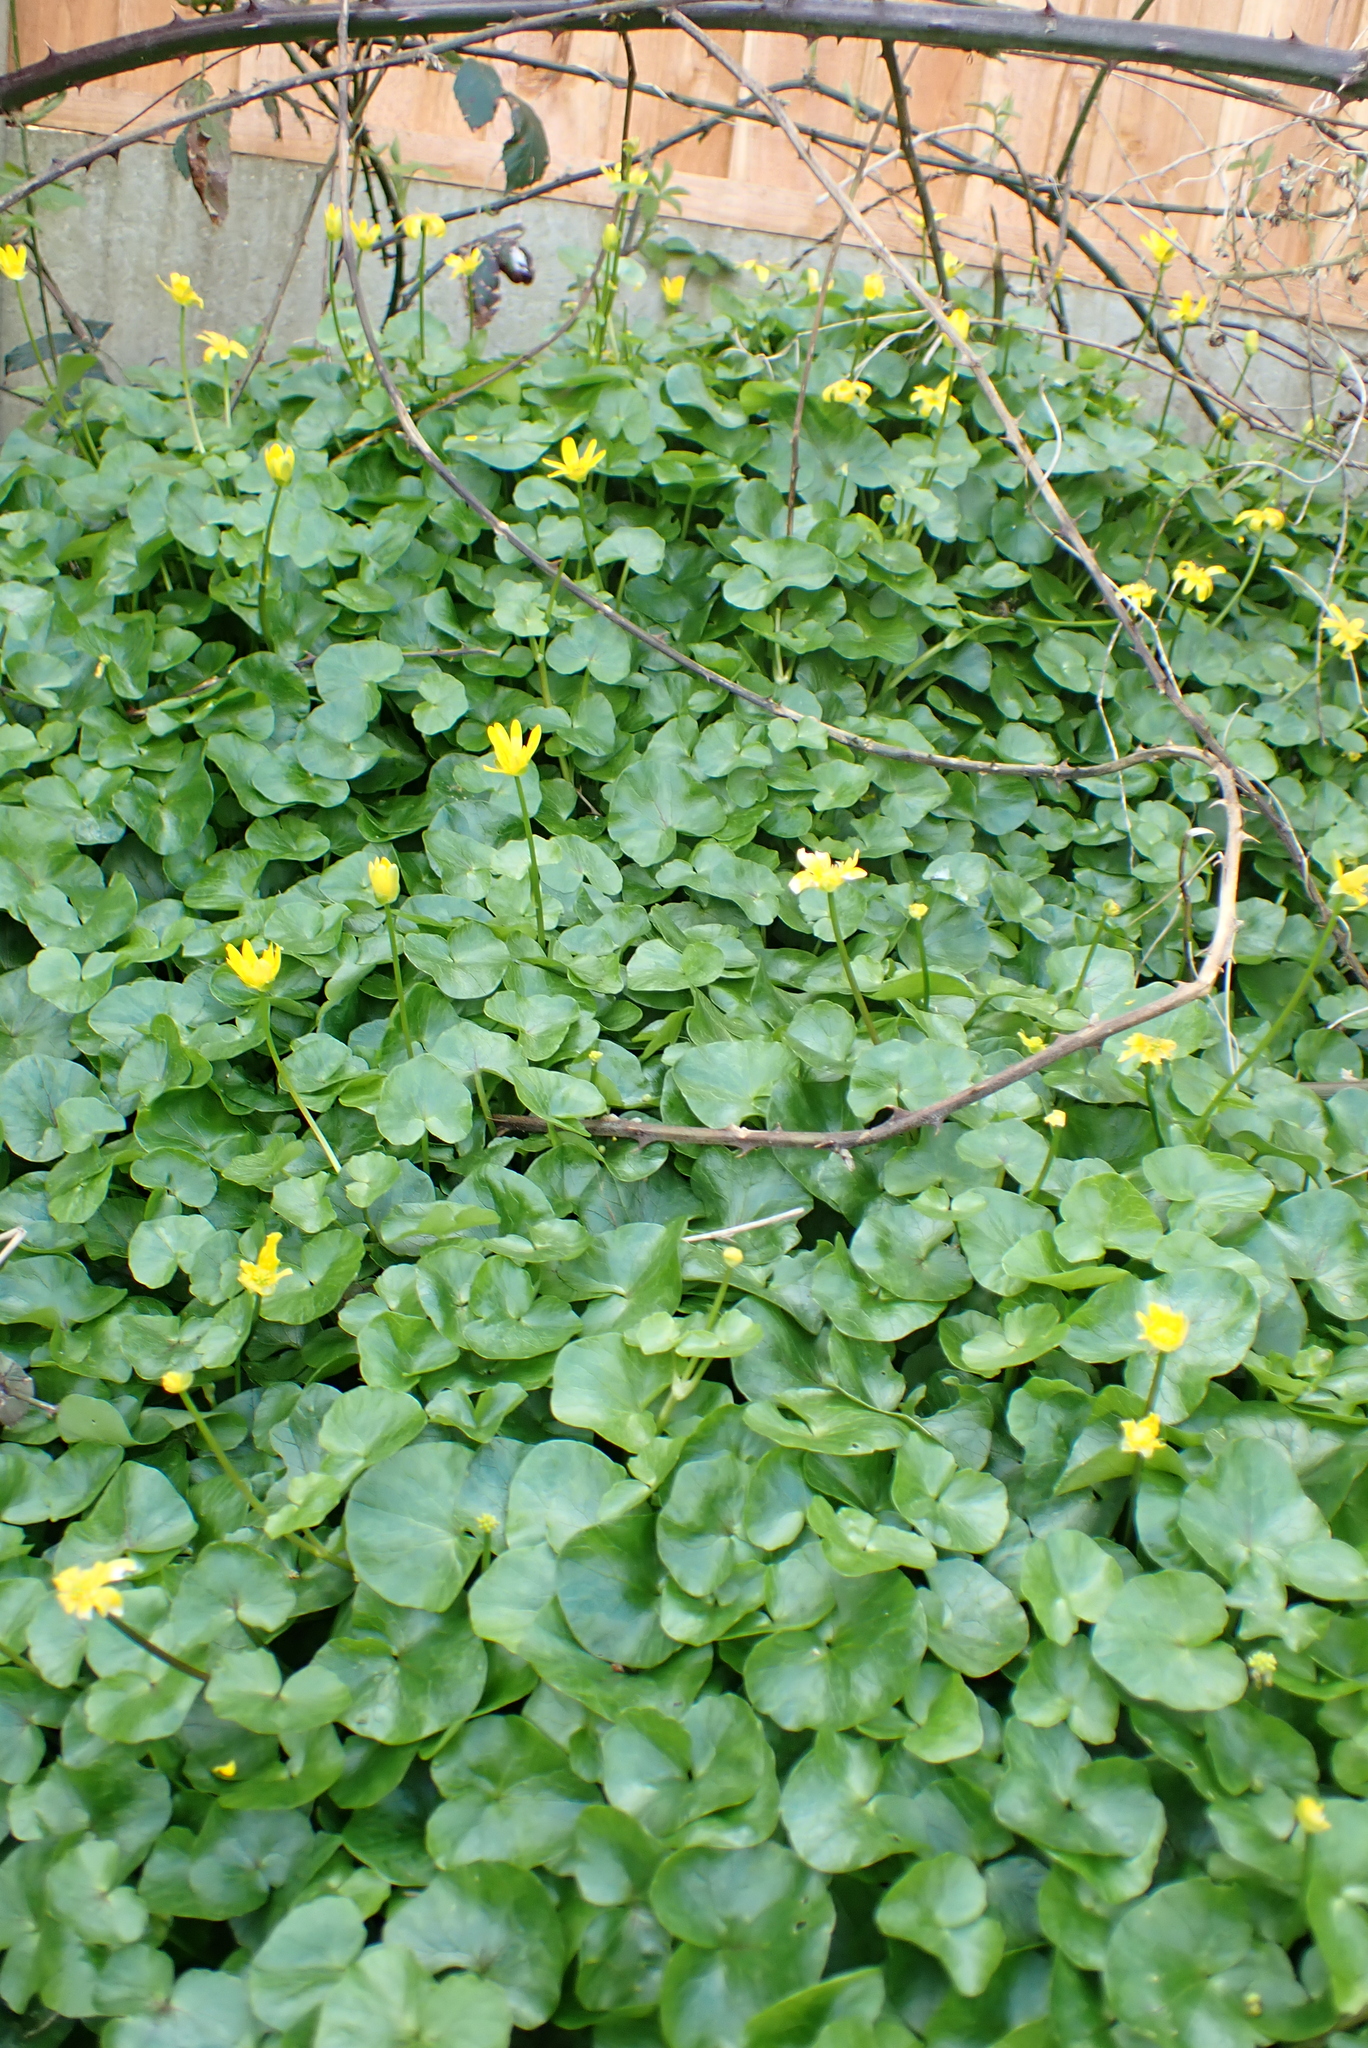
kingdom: Plantae
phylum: Tracheophyta
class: Magnoliopsida
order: Ranunculales
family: Ranunculaceae
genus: Ficaria
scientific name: Ficaria verna
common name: Lesser celandine
